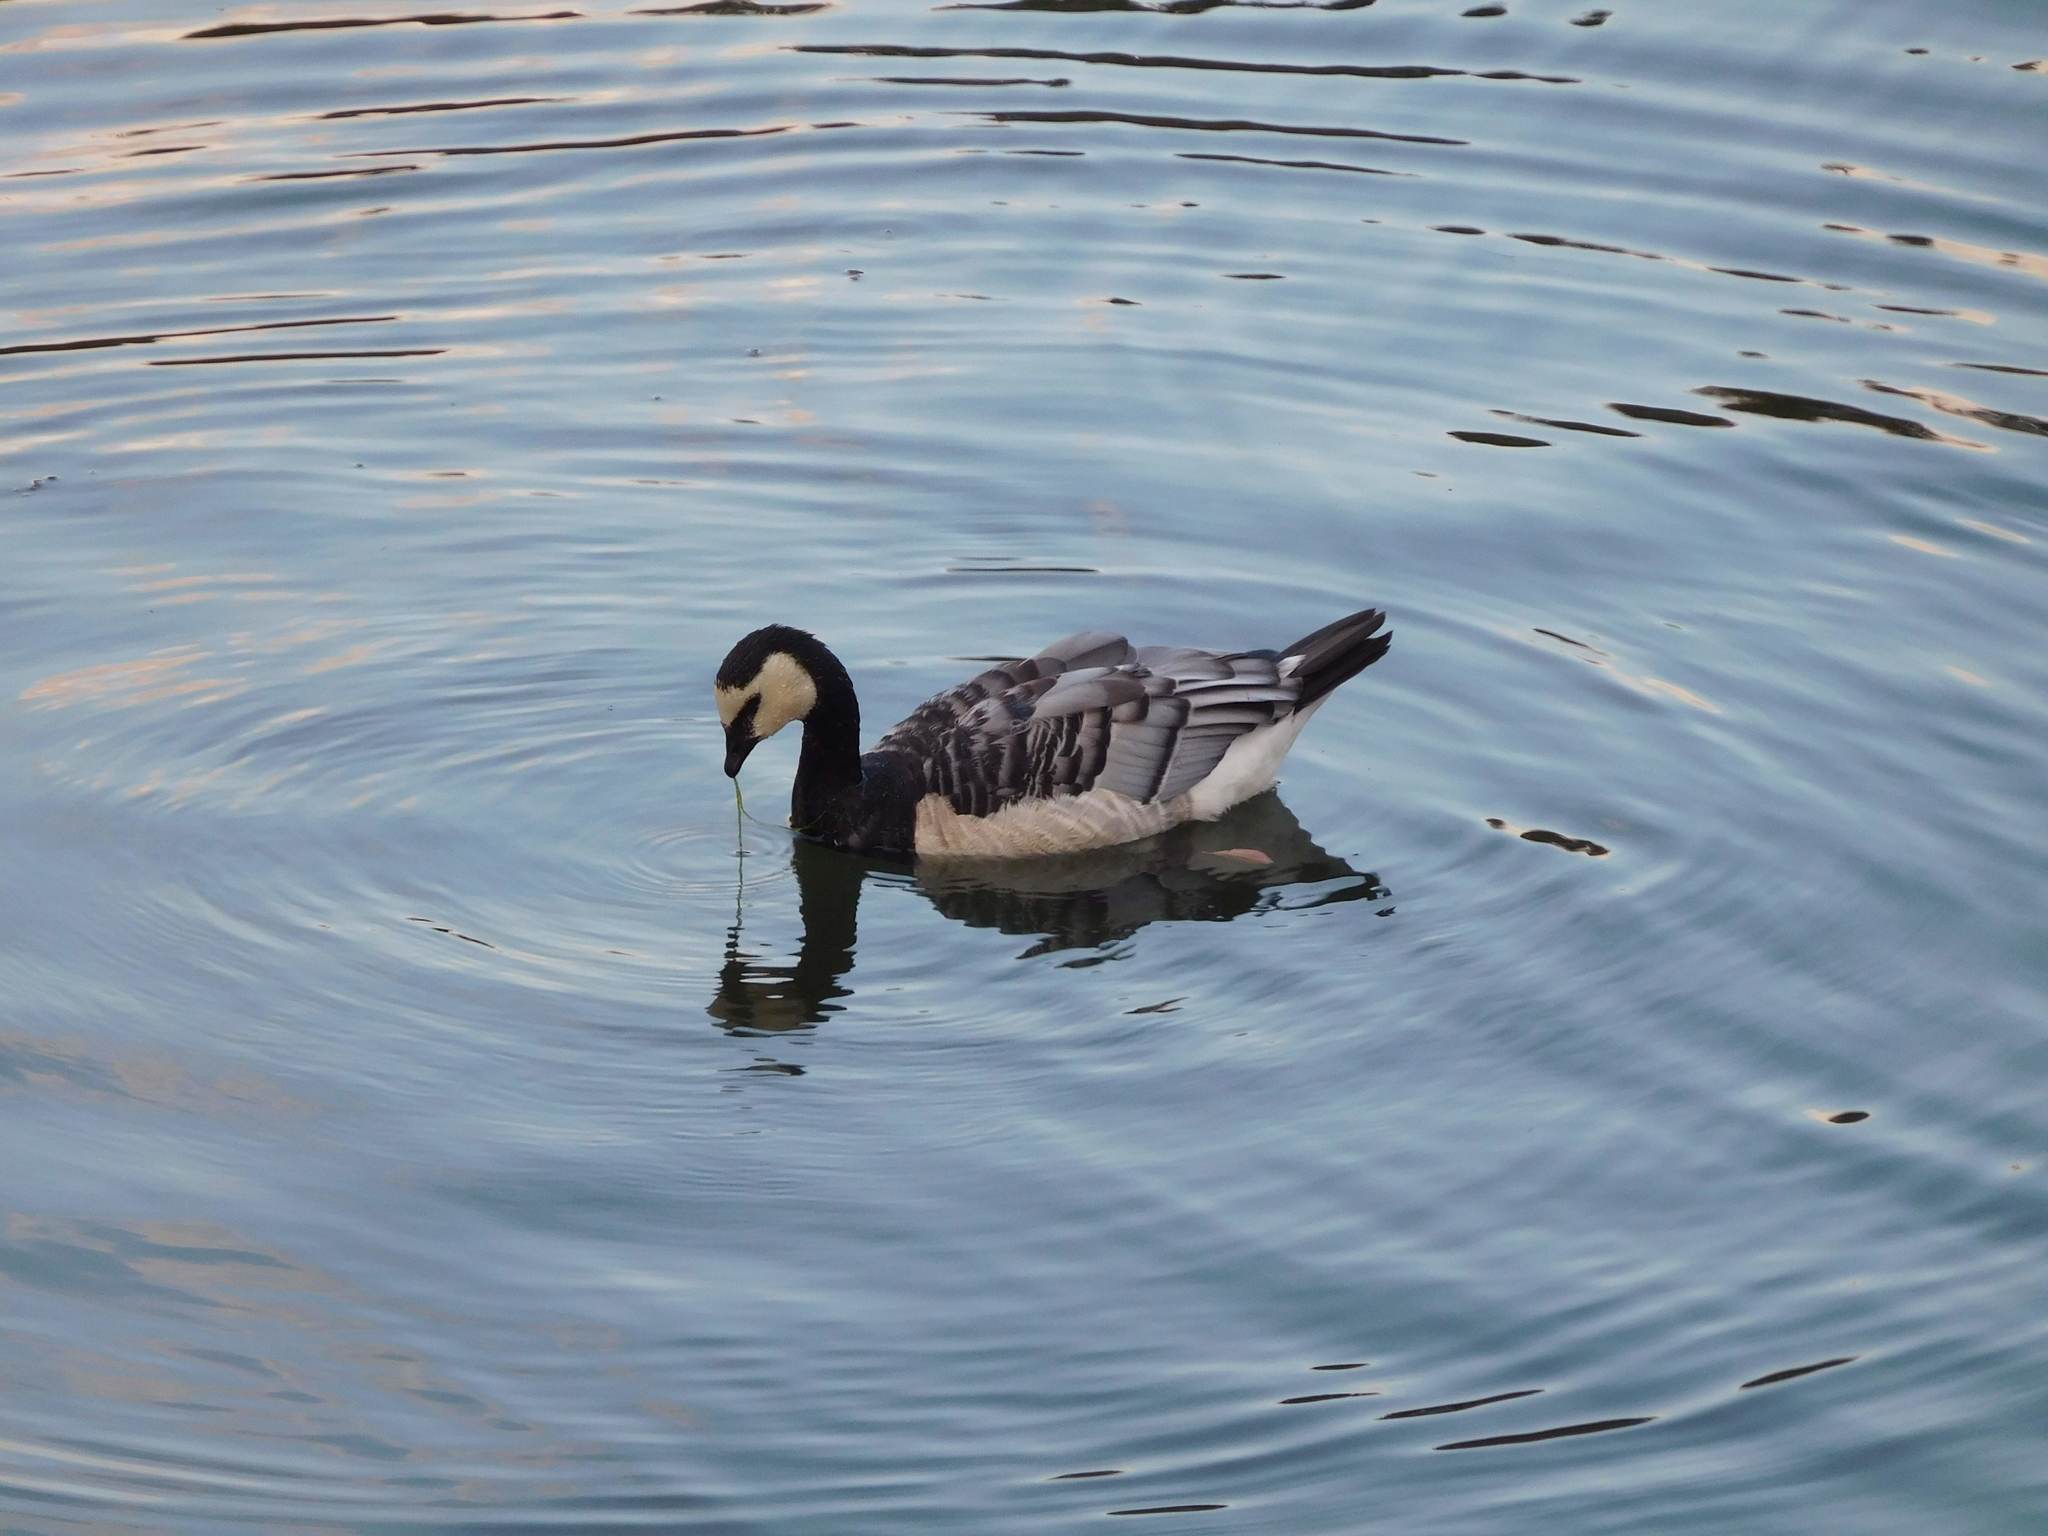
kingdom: Animalia
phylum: Chordata
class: Aves
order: Anseriformes
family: Anatidae
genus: Branta
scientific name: Branta leucopsis
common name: Barnacle goose
